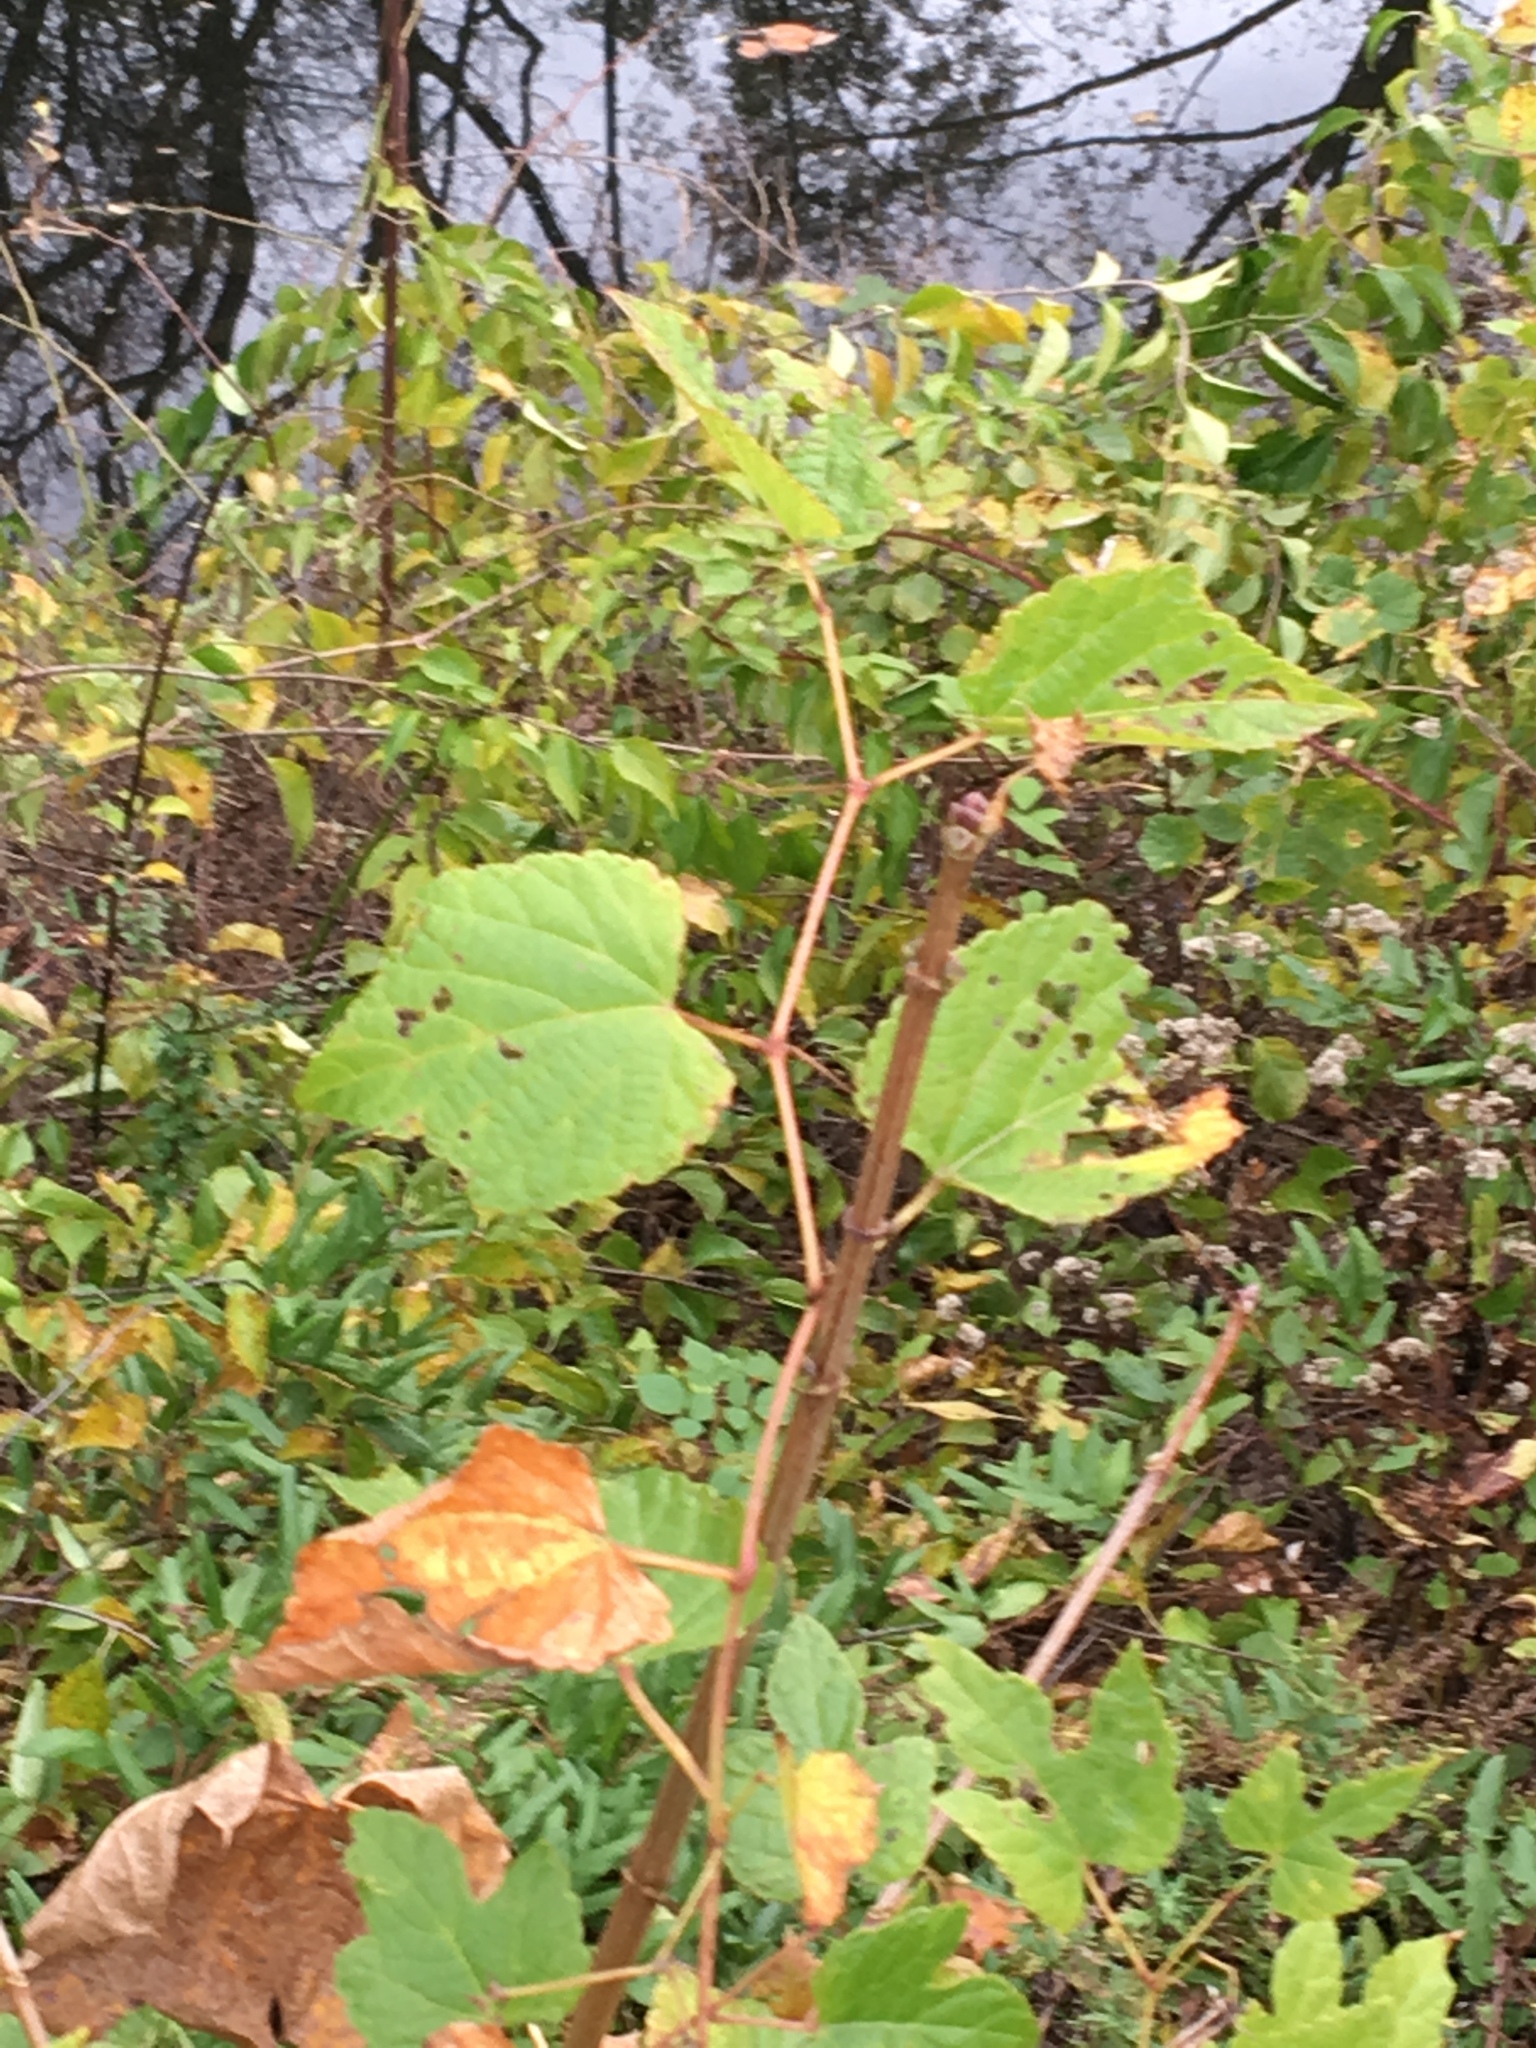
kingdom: Plantae
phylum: Tracheophyta
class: Magnoliopsida
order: Vitales
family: Vitaceae
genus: Ampelopsis
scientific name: Ampelopsis glandulosa
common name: Amur peppervine
